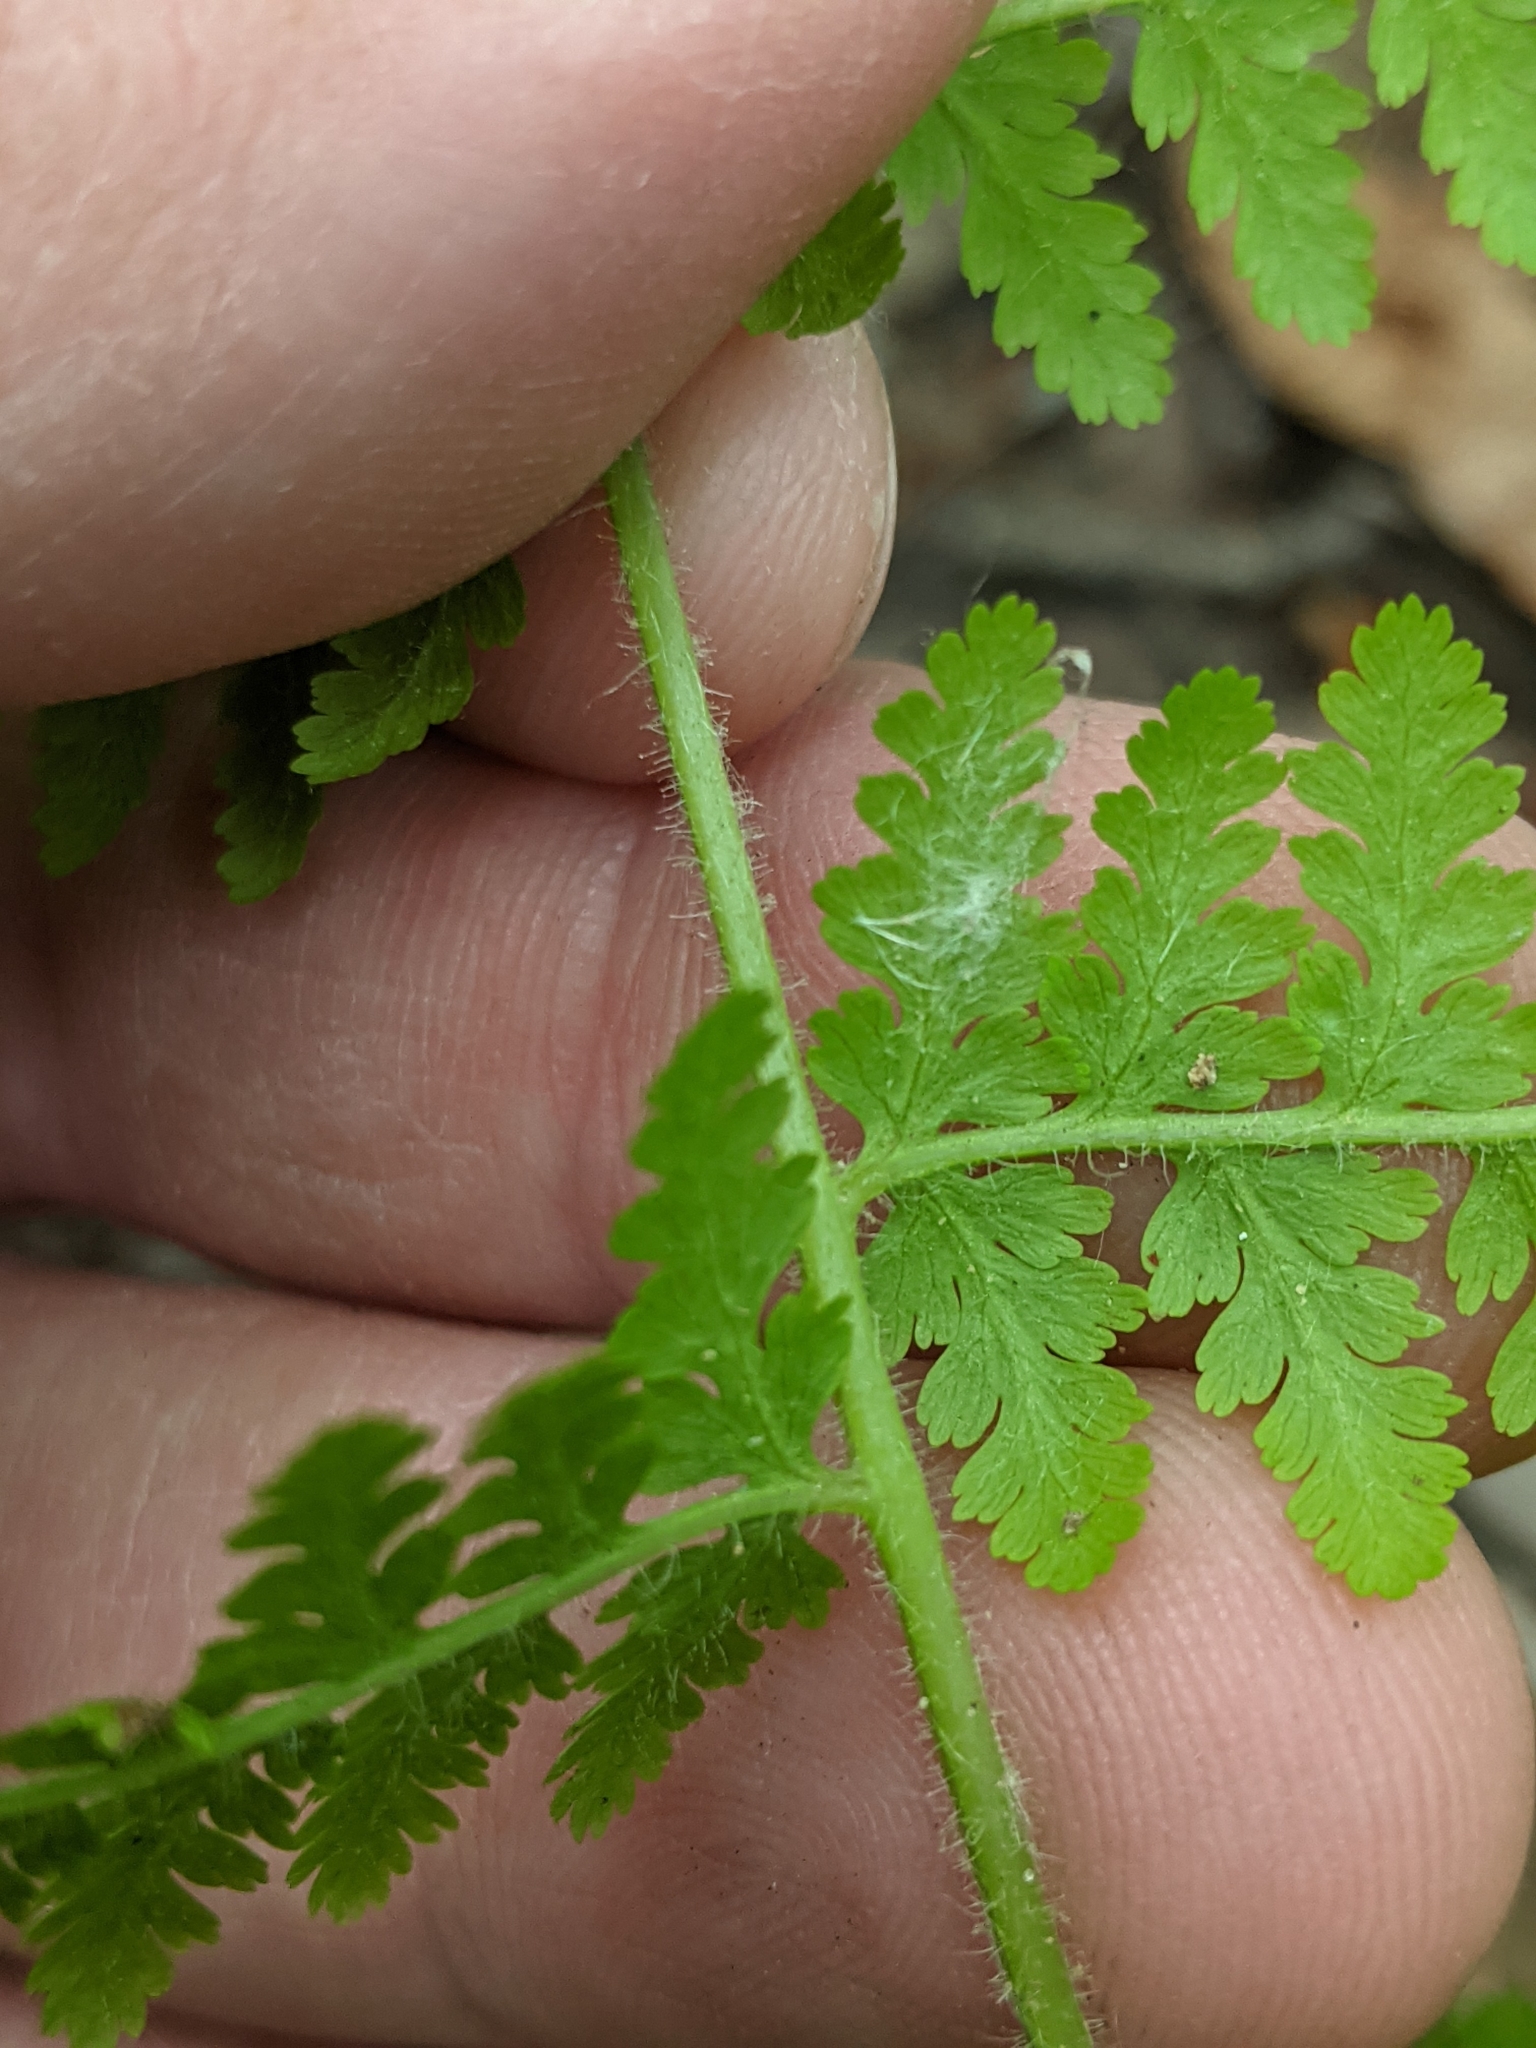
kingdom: Plantae
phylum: Tracheophyta
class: Polypodiopsida
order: Polypodiales
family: Dennstaedtiaceae
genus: Sitobolium
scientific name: Sitobolium punctilobum
